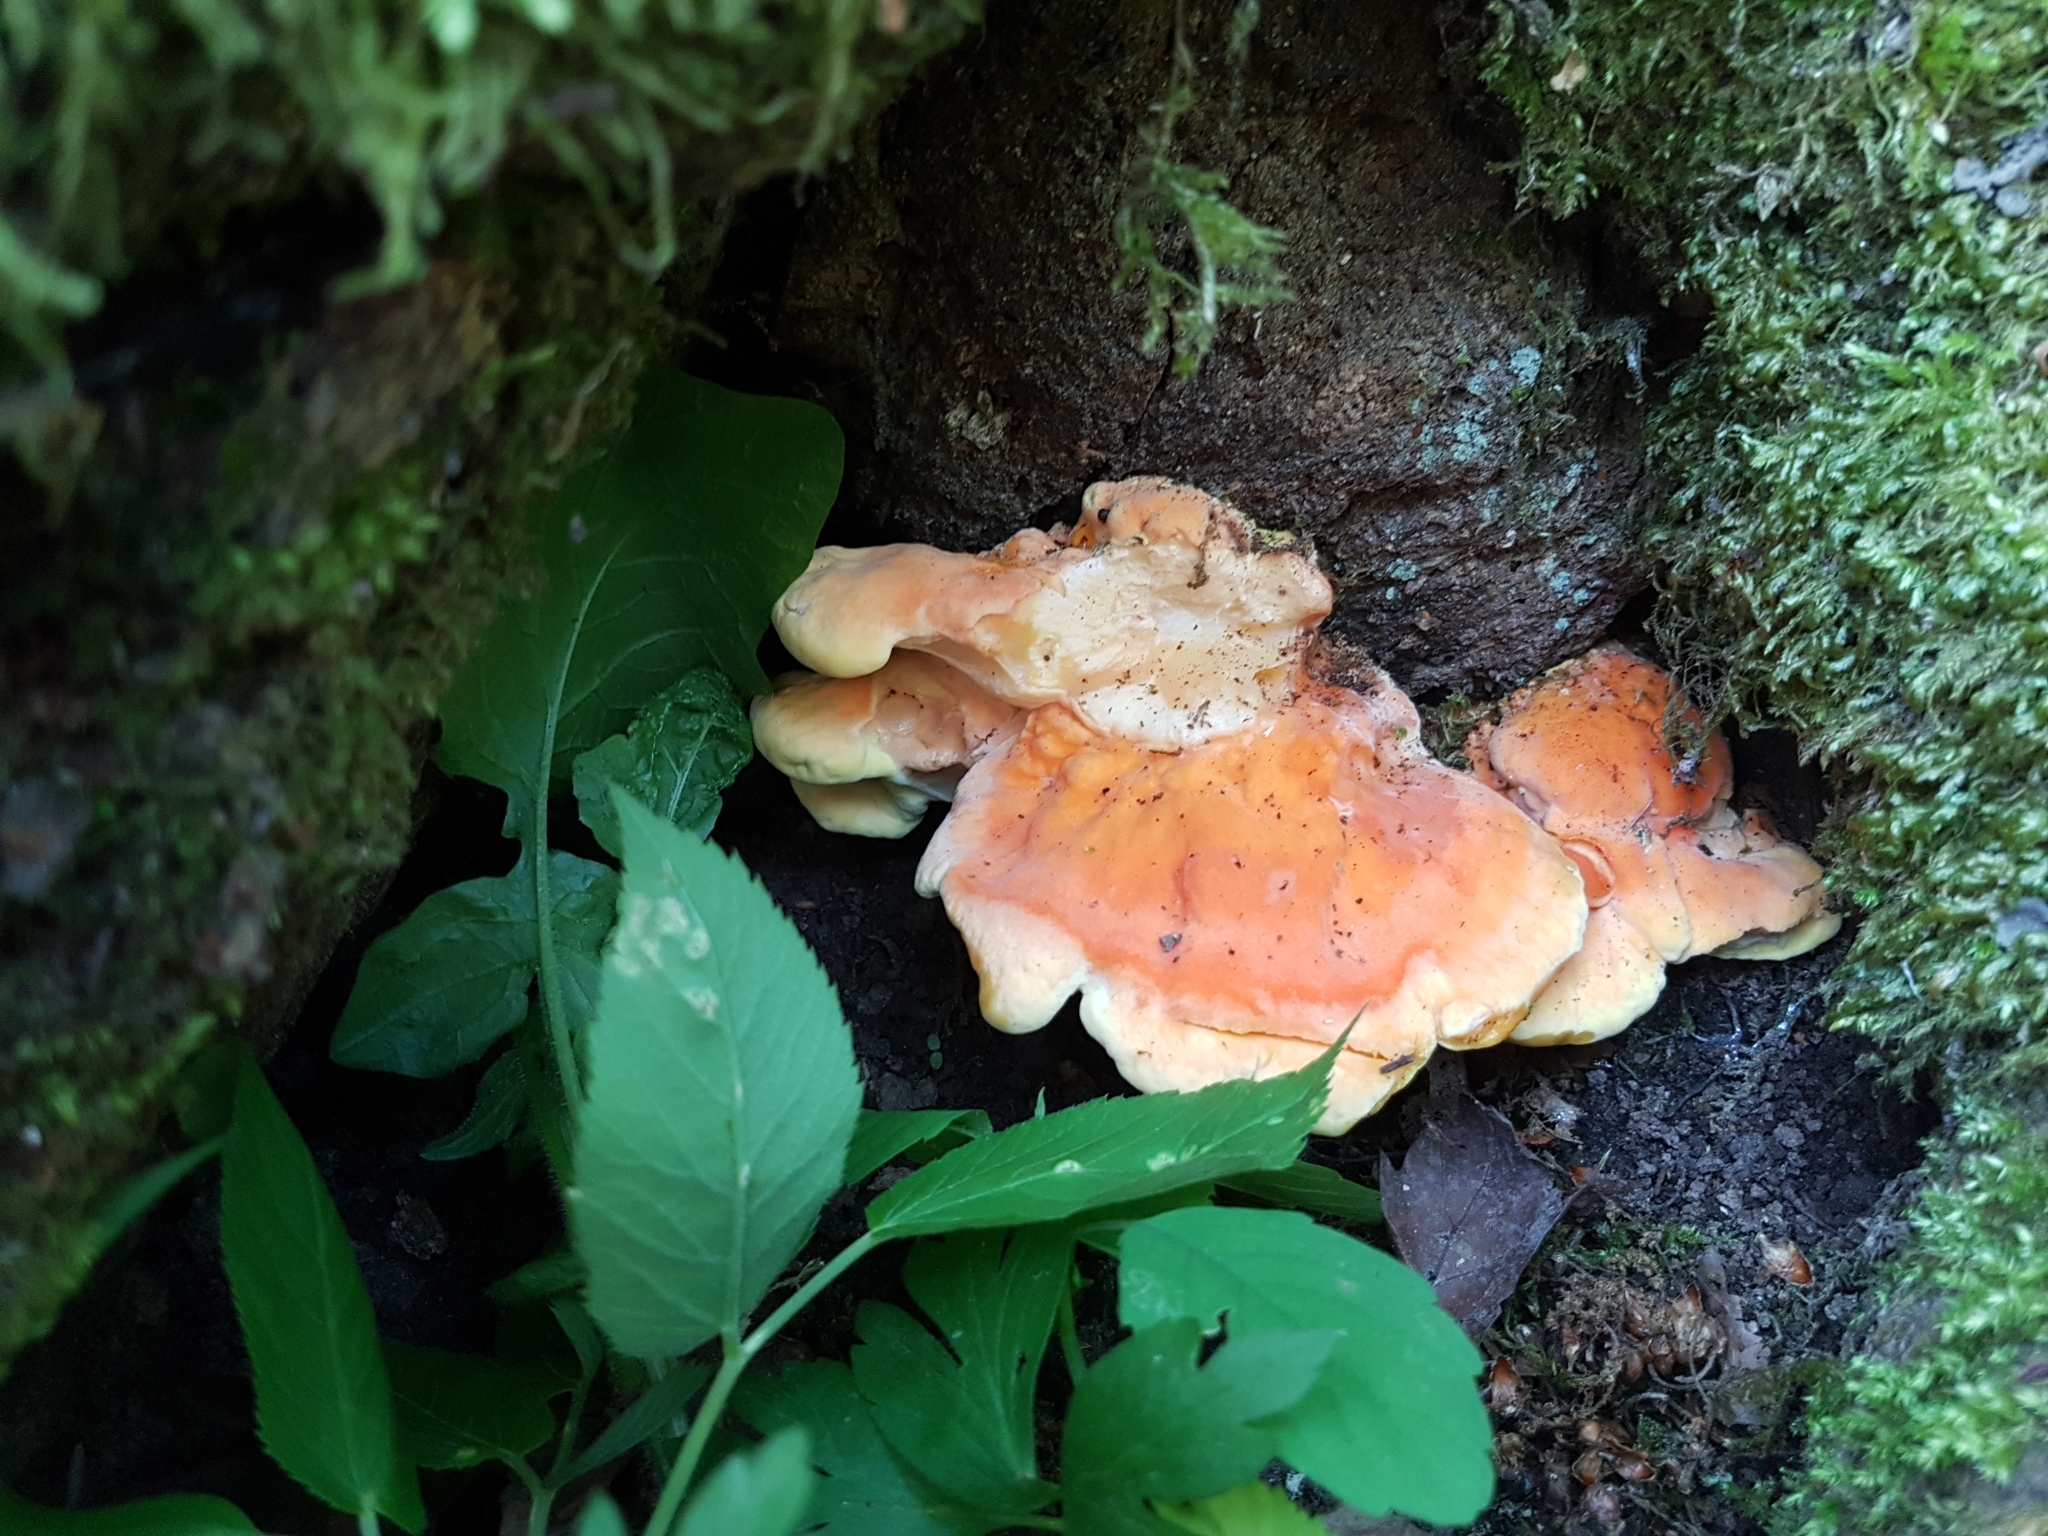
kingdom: Fungi
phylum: Basidiomycota
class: Agaricomycetes
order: Polyporales
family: Laetiporaceae
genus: Laetiporus
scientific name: Laetiporus sulphureus
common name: Chicken of the woods
